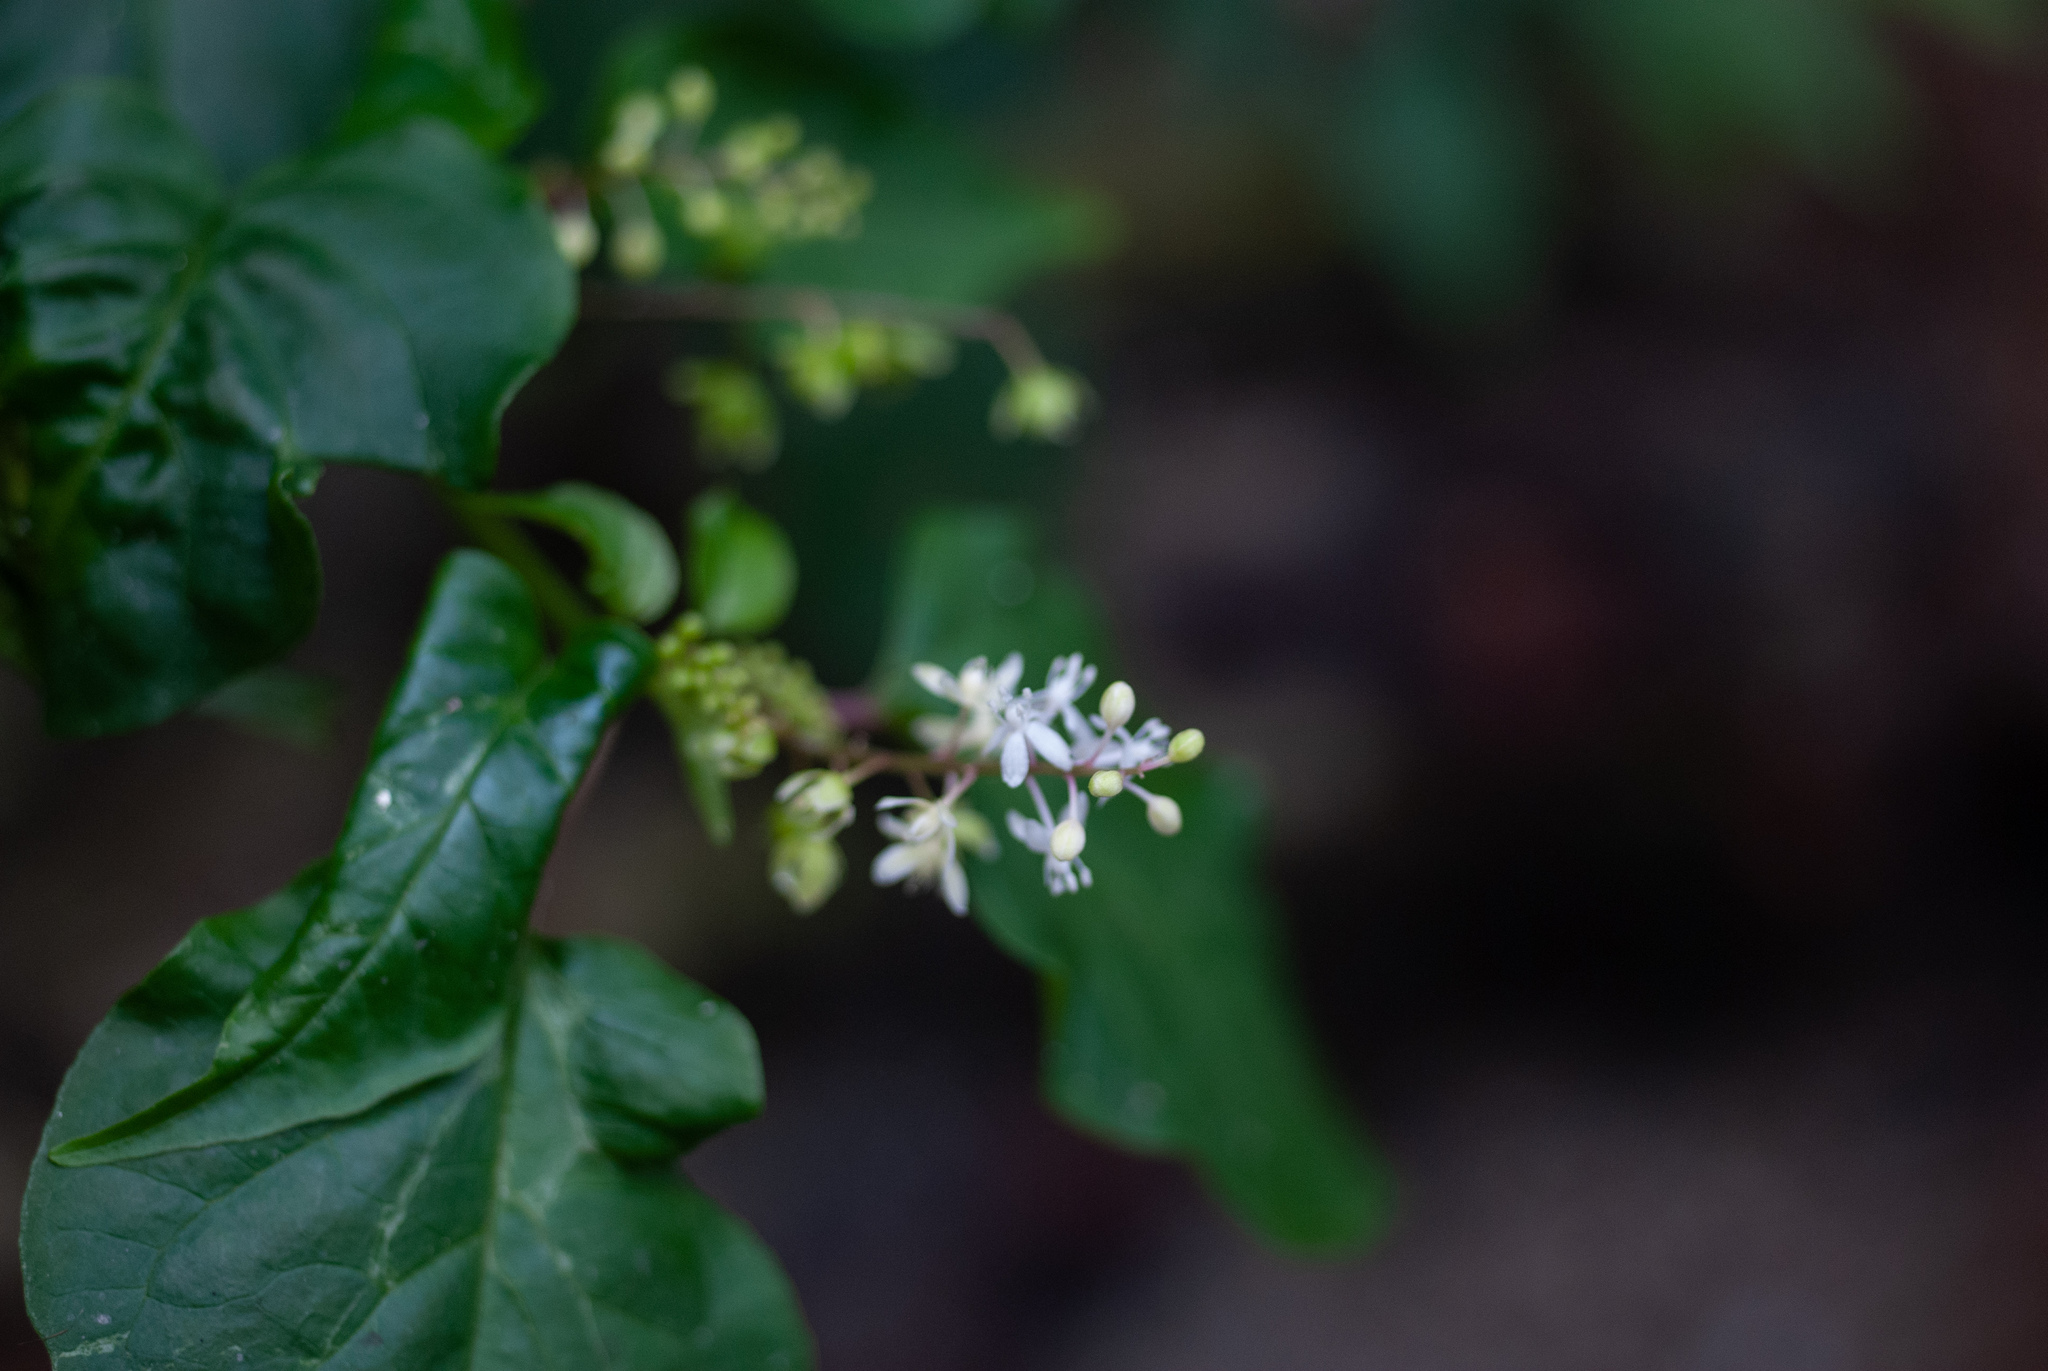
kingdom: Plantae
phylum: Tracheophyta
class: Magnoliopsida
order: Caryophyllales
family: Phytolaccaceae
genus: Rivina
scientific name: Rivina humilis
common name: Rougeplant
